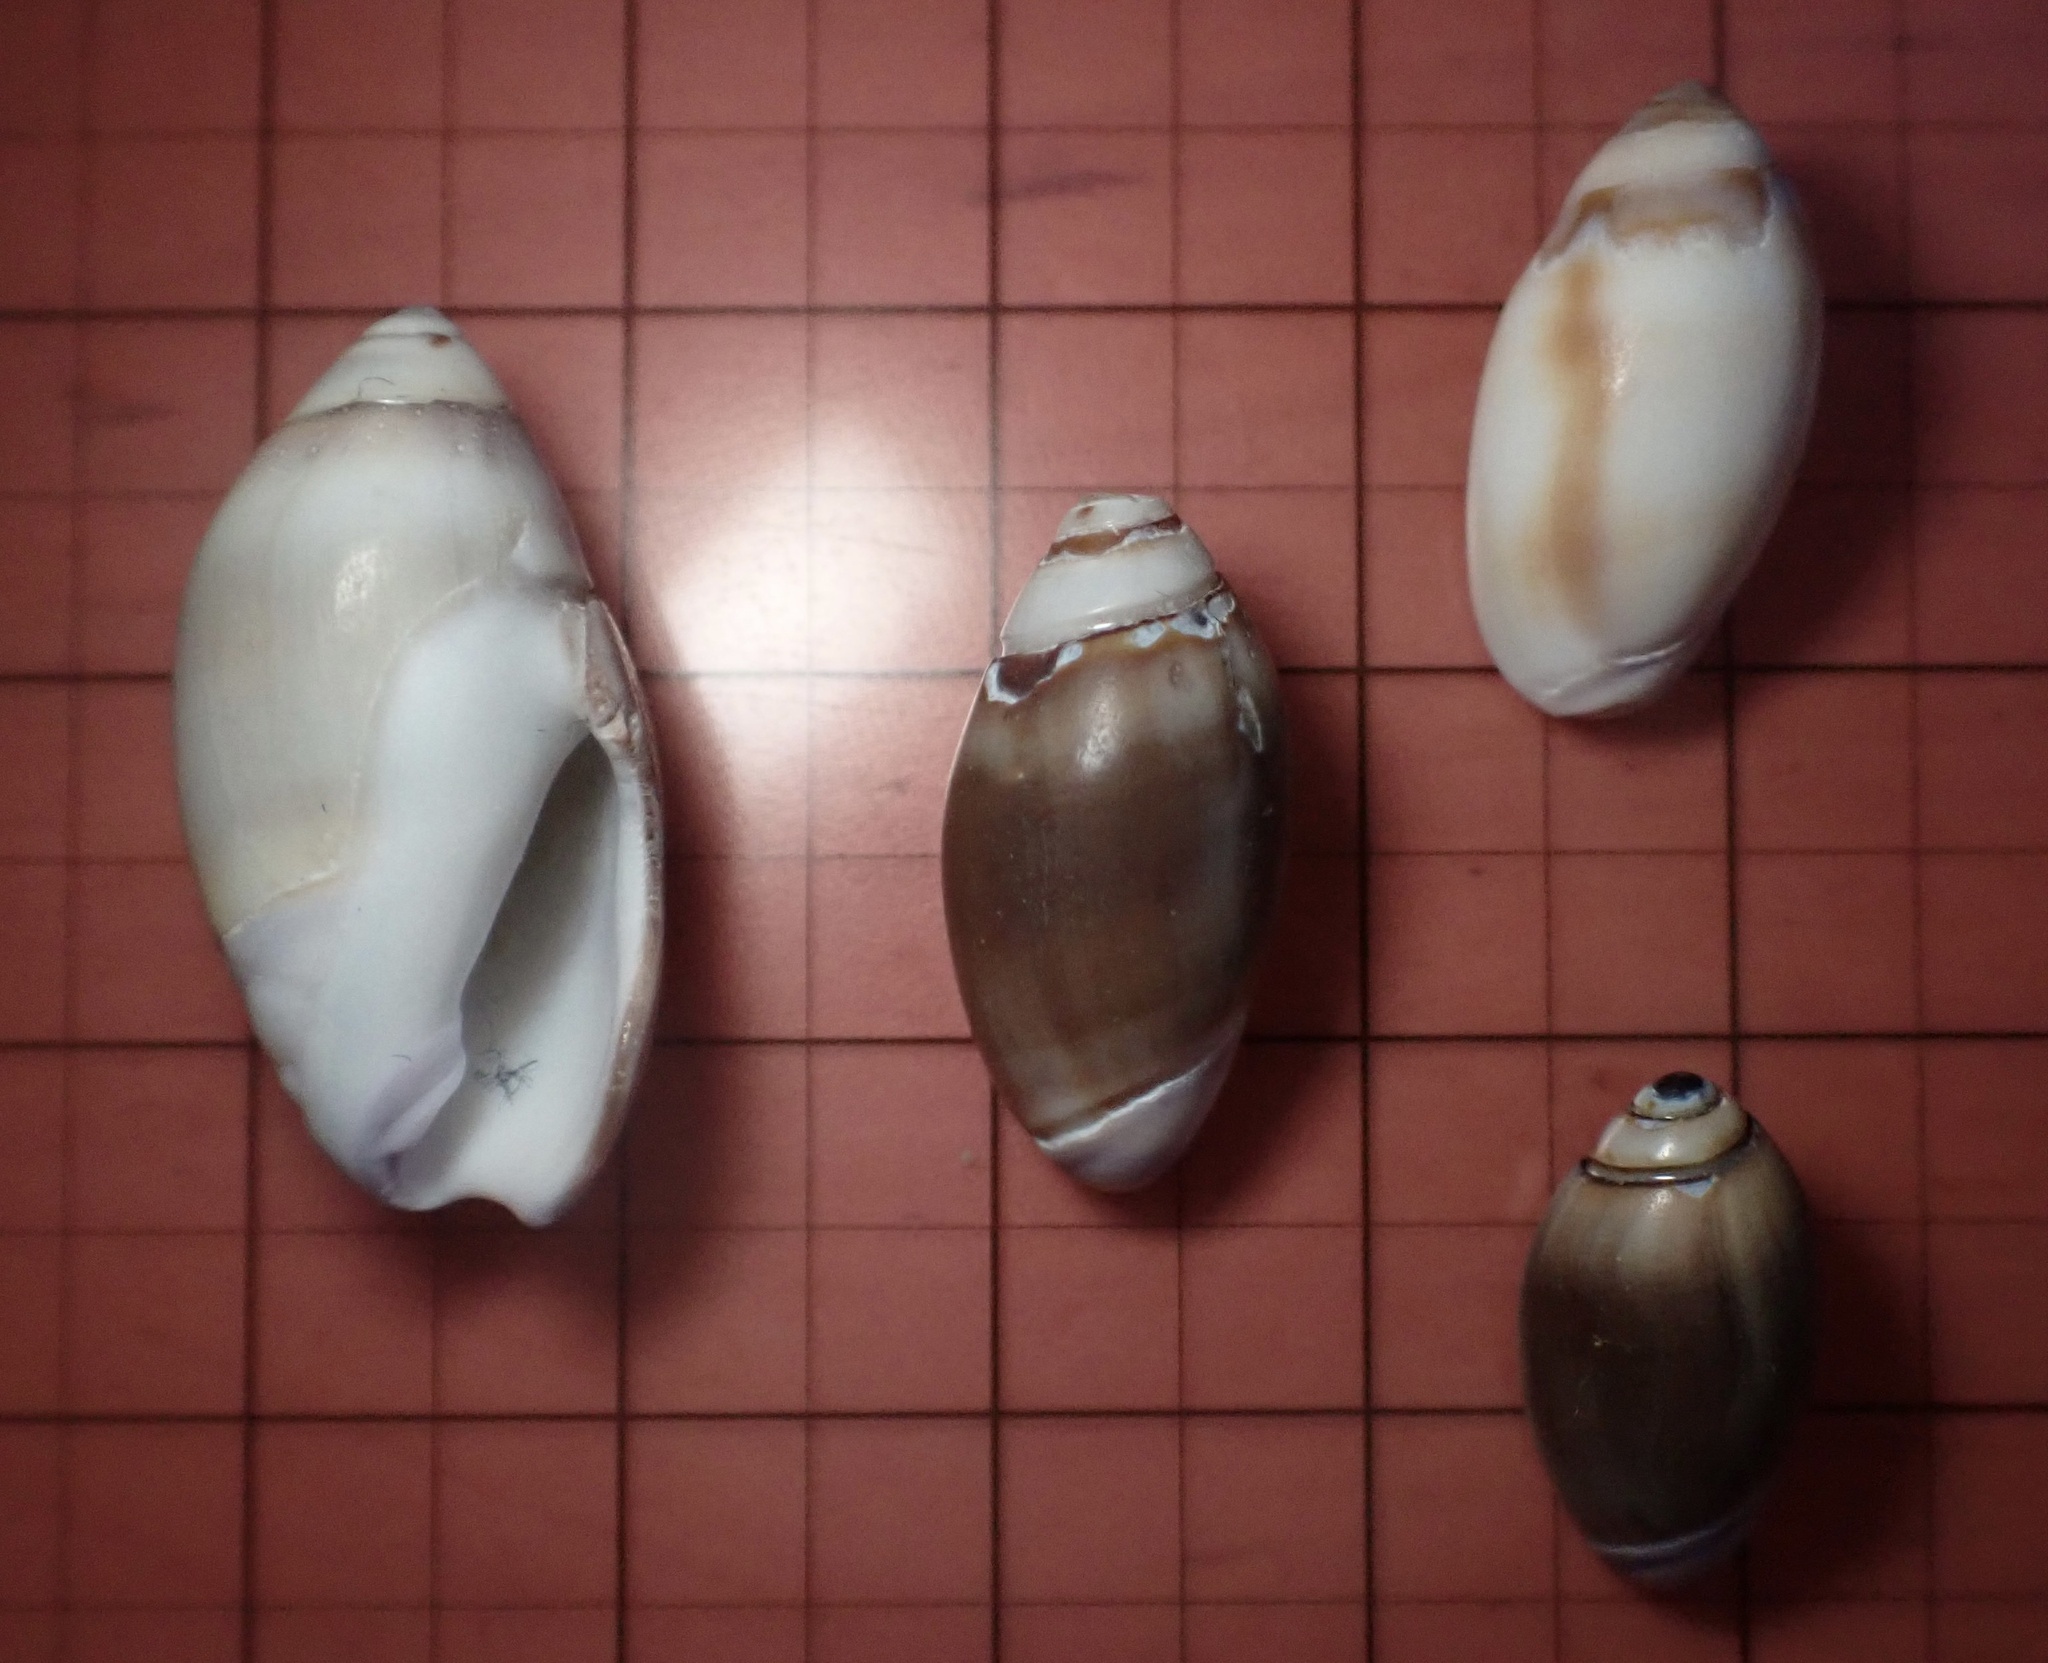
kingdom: Animalia
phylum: Mollusca
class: Gastropoda
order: Neogastropoda
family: Olividae
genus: Callianax
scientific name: Callianax biplicata
